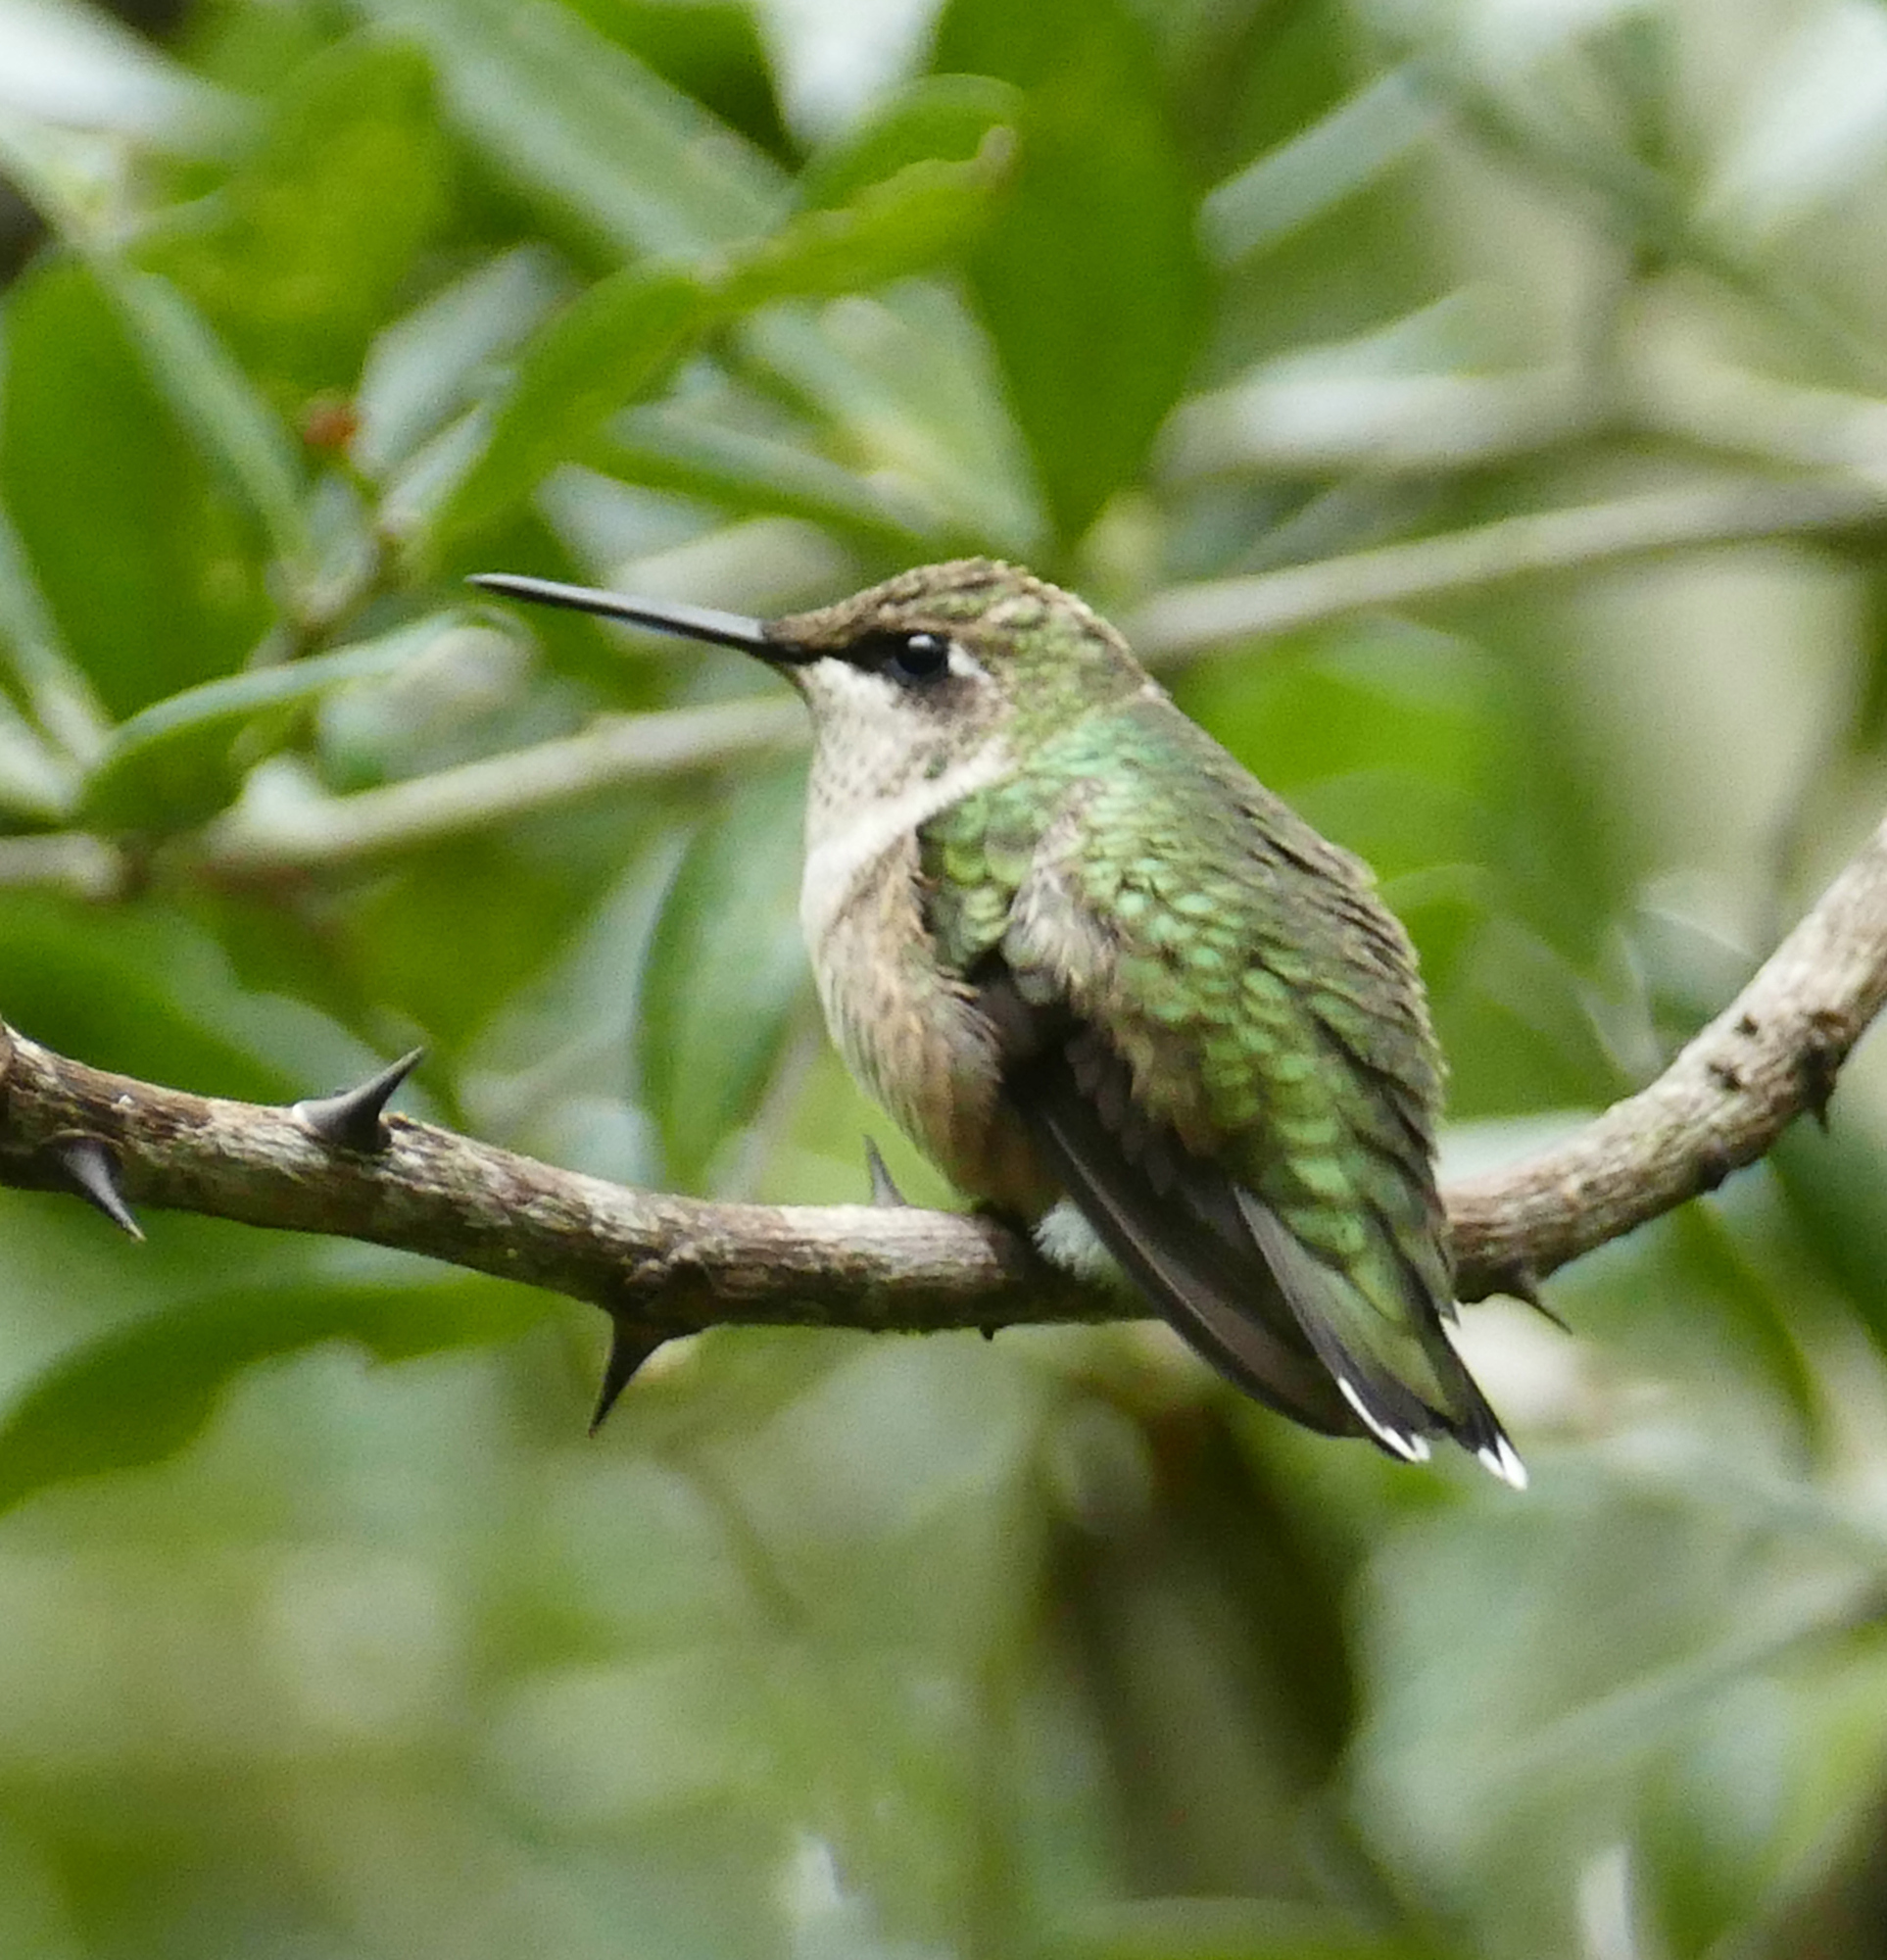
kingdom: Animalia
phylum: Chordata
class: Aves
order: Apodiformes
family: Trochilidae
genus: Archilochus
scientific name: Archilochus colubris
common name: Ruby-throated hummingbird
